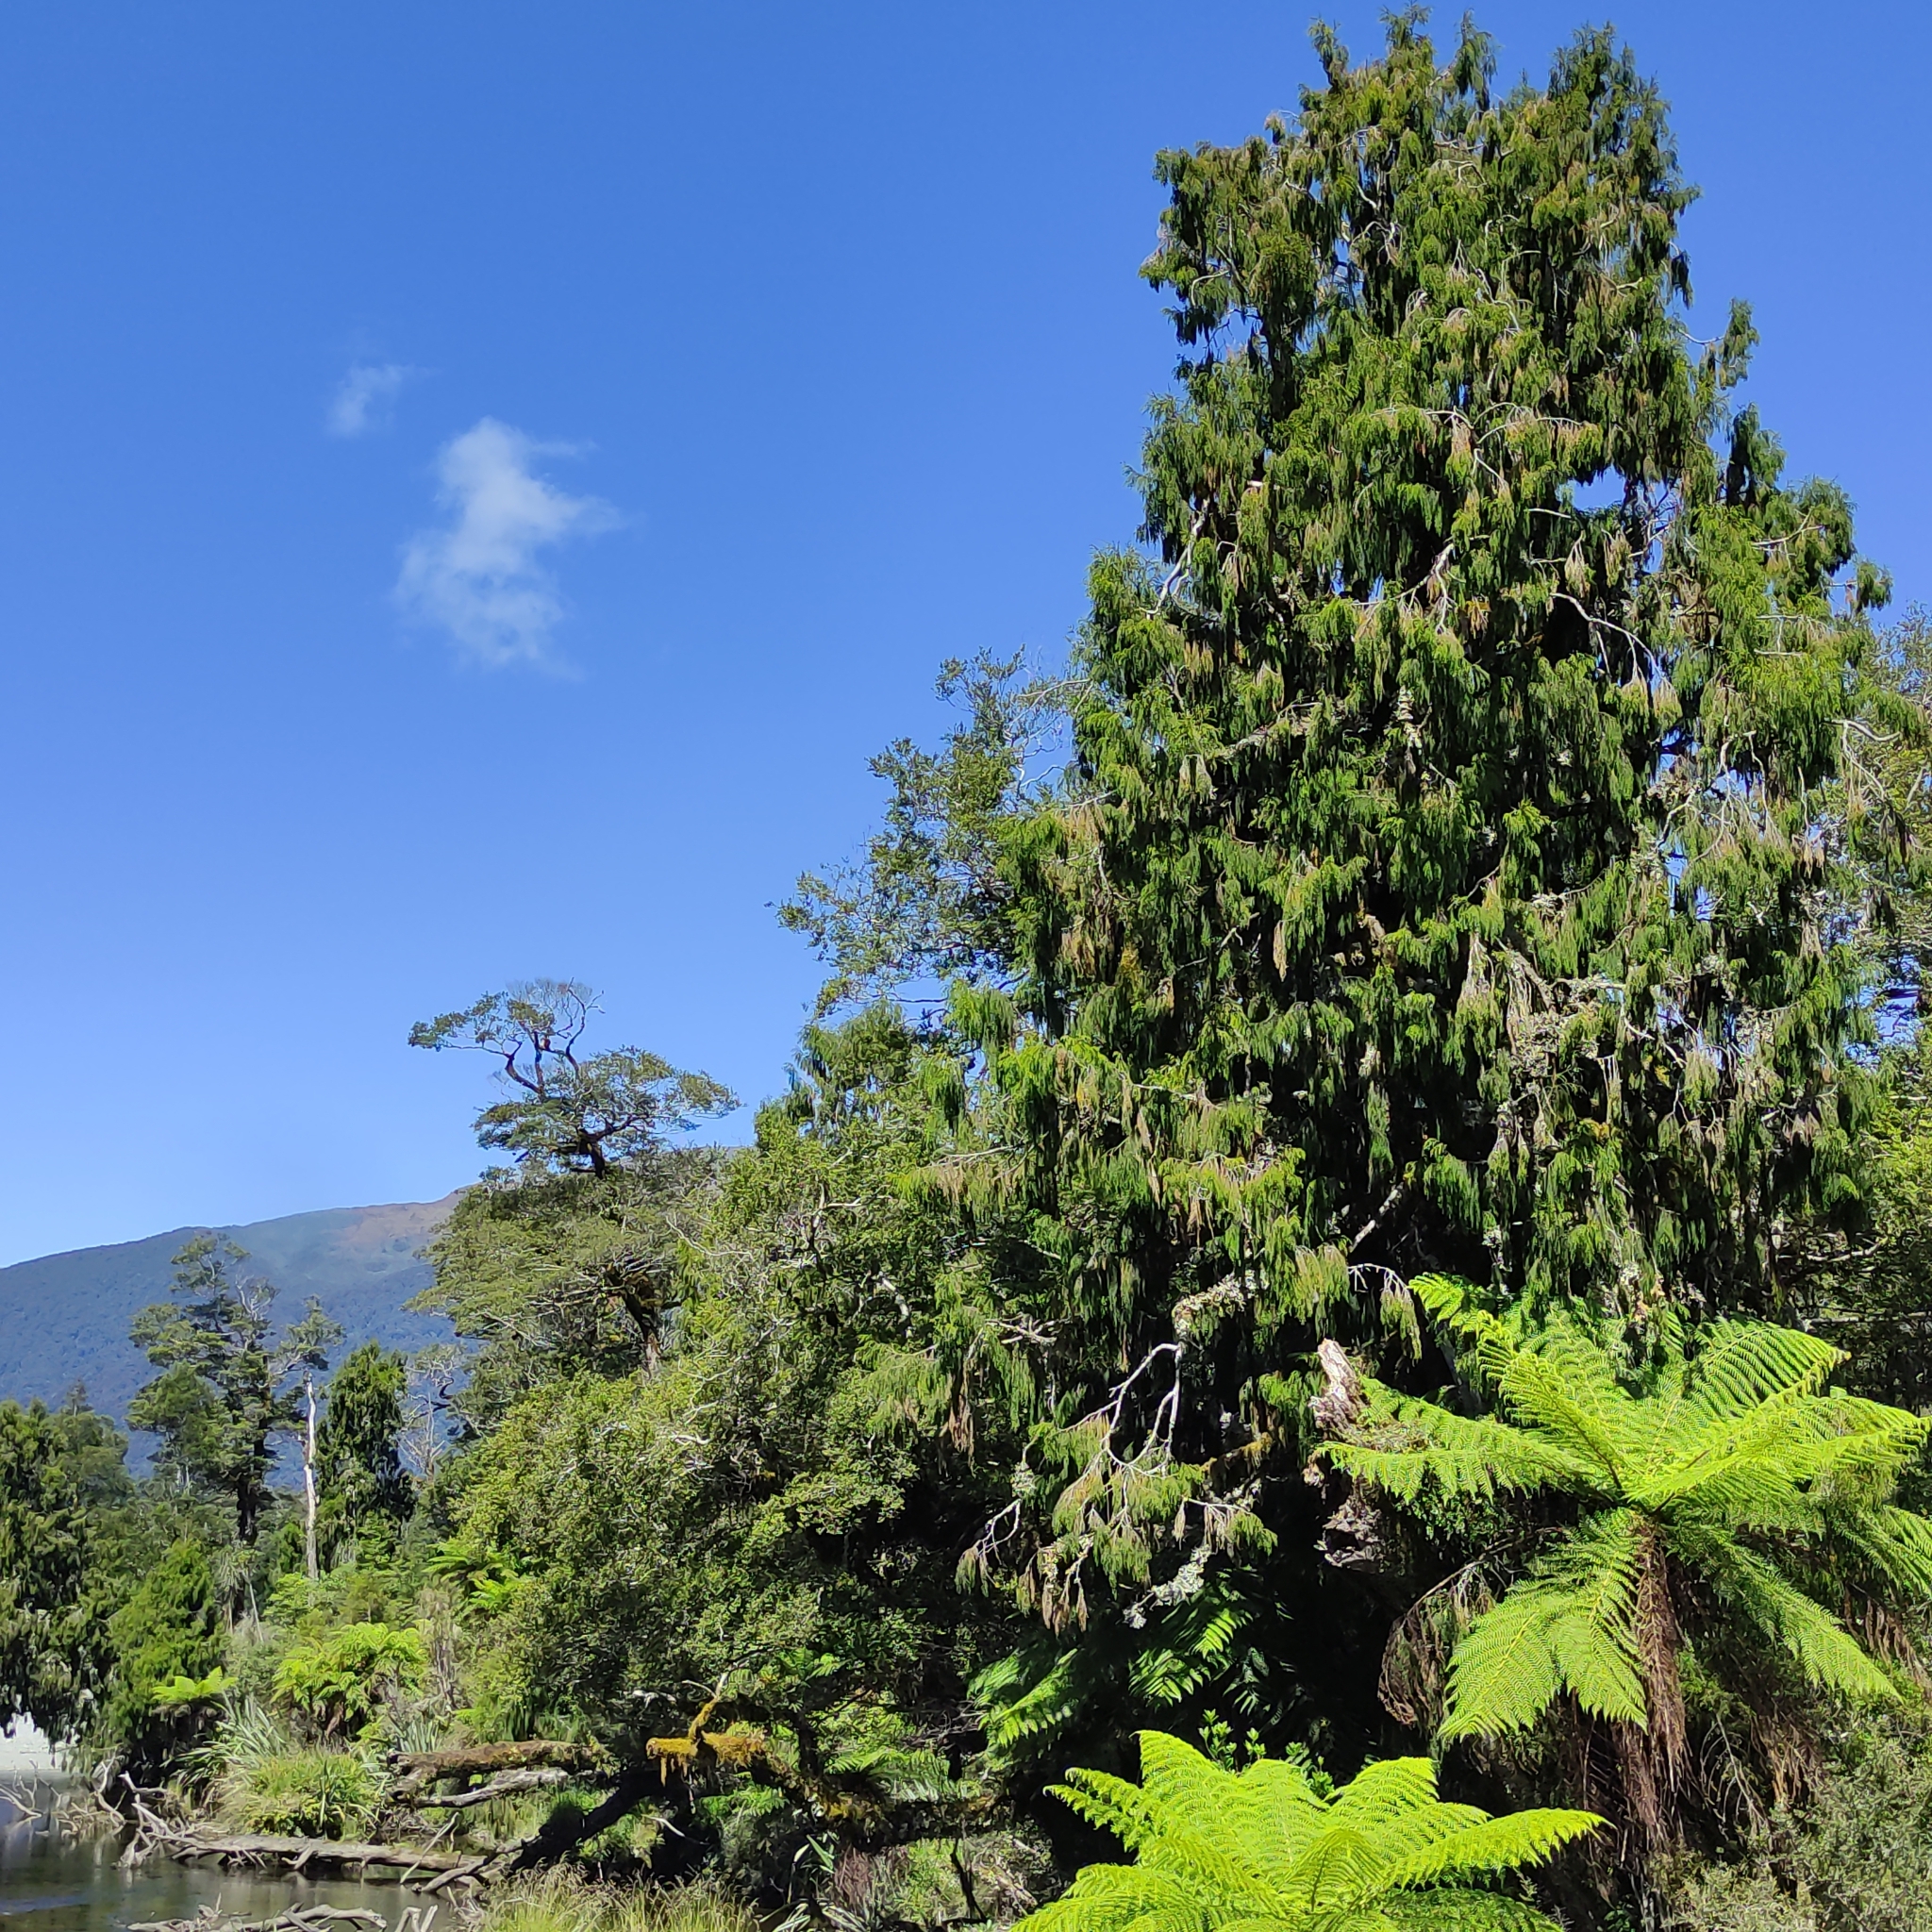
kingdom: Plantae
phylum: Tracheophyta
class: Pinopsida
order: Pinales
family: Podocarpaceae
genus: Dacrydium
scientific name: Dacrydium cupressinum
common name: Red pine
